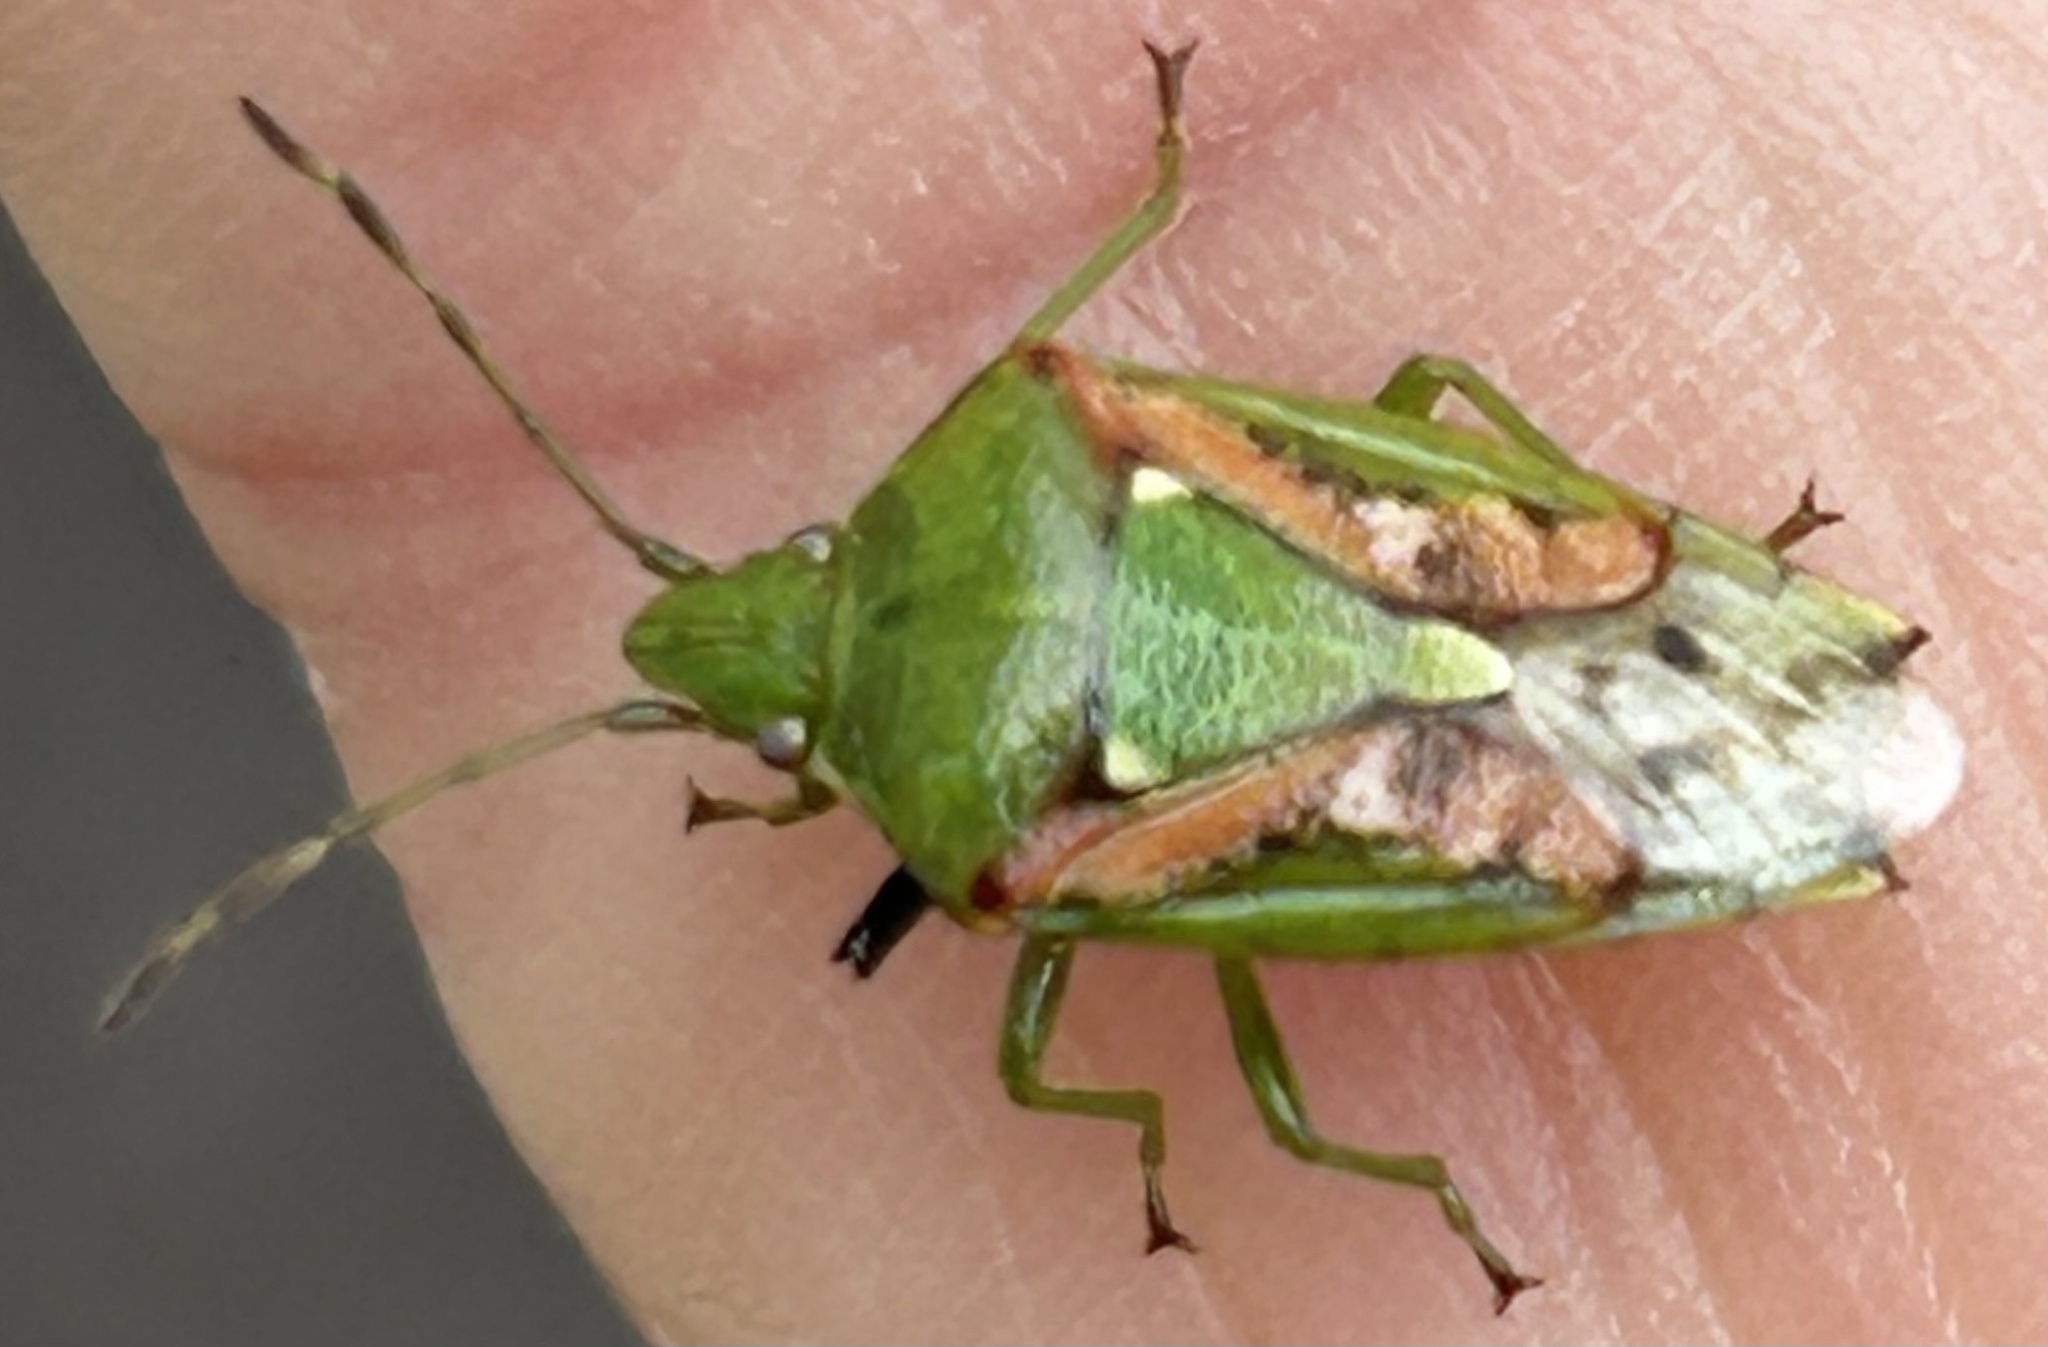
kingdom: Animalia
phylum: Arthropoda
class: Insecta
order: Hemiptera
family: Acanthosomatidae
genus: Cyphostethus
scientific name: Cyphostethus tristriatus
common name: Juniper shieldbug
